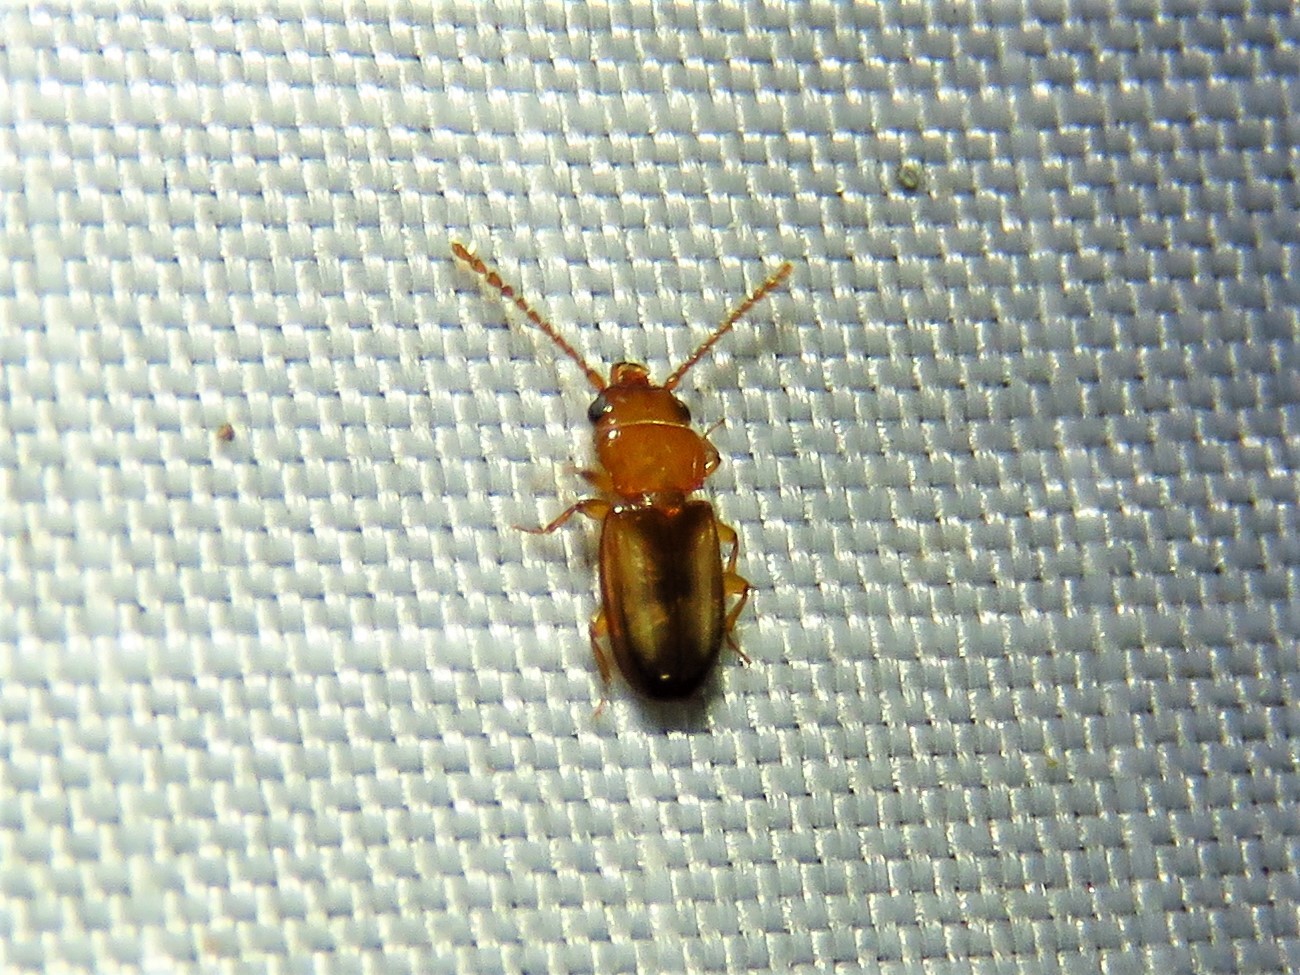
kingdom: Animalia
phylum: Arthropoda
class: Insecta
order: Coleoptera
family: Laemophloeidae
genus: Laemophloeus
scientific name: Laemophloeus terminalis
